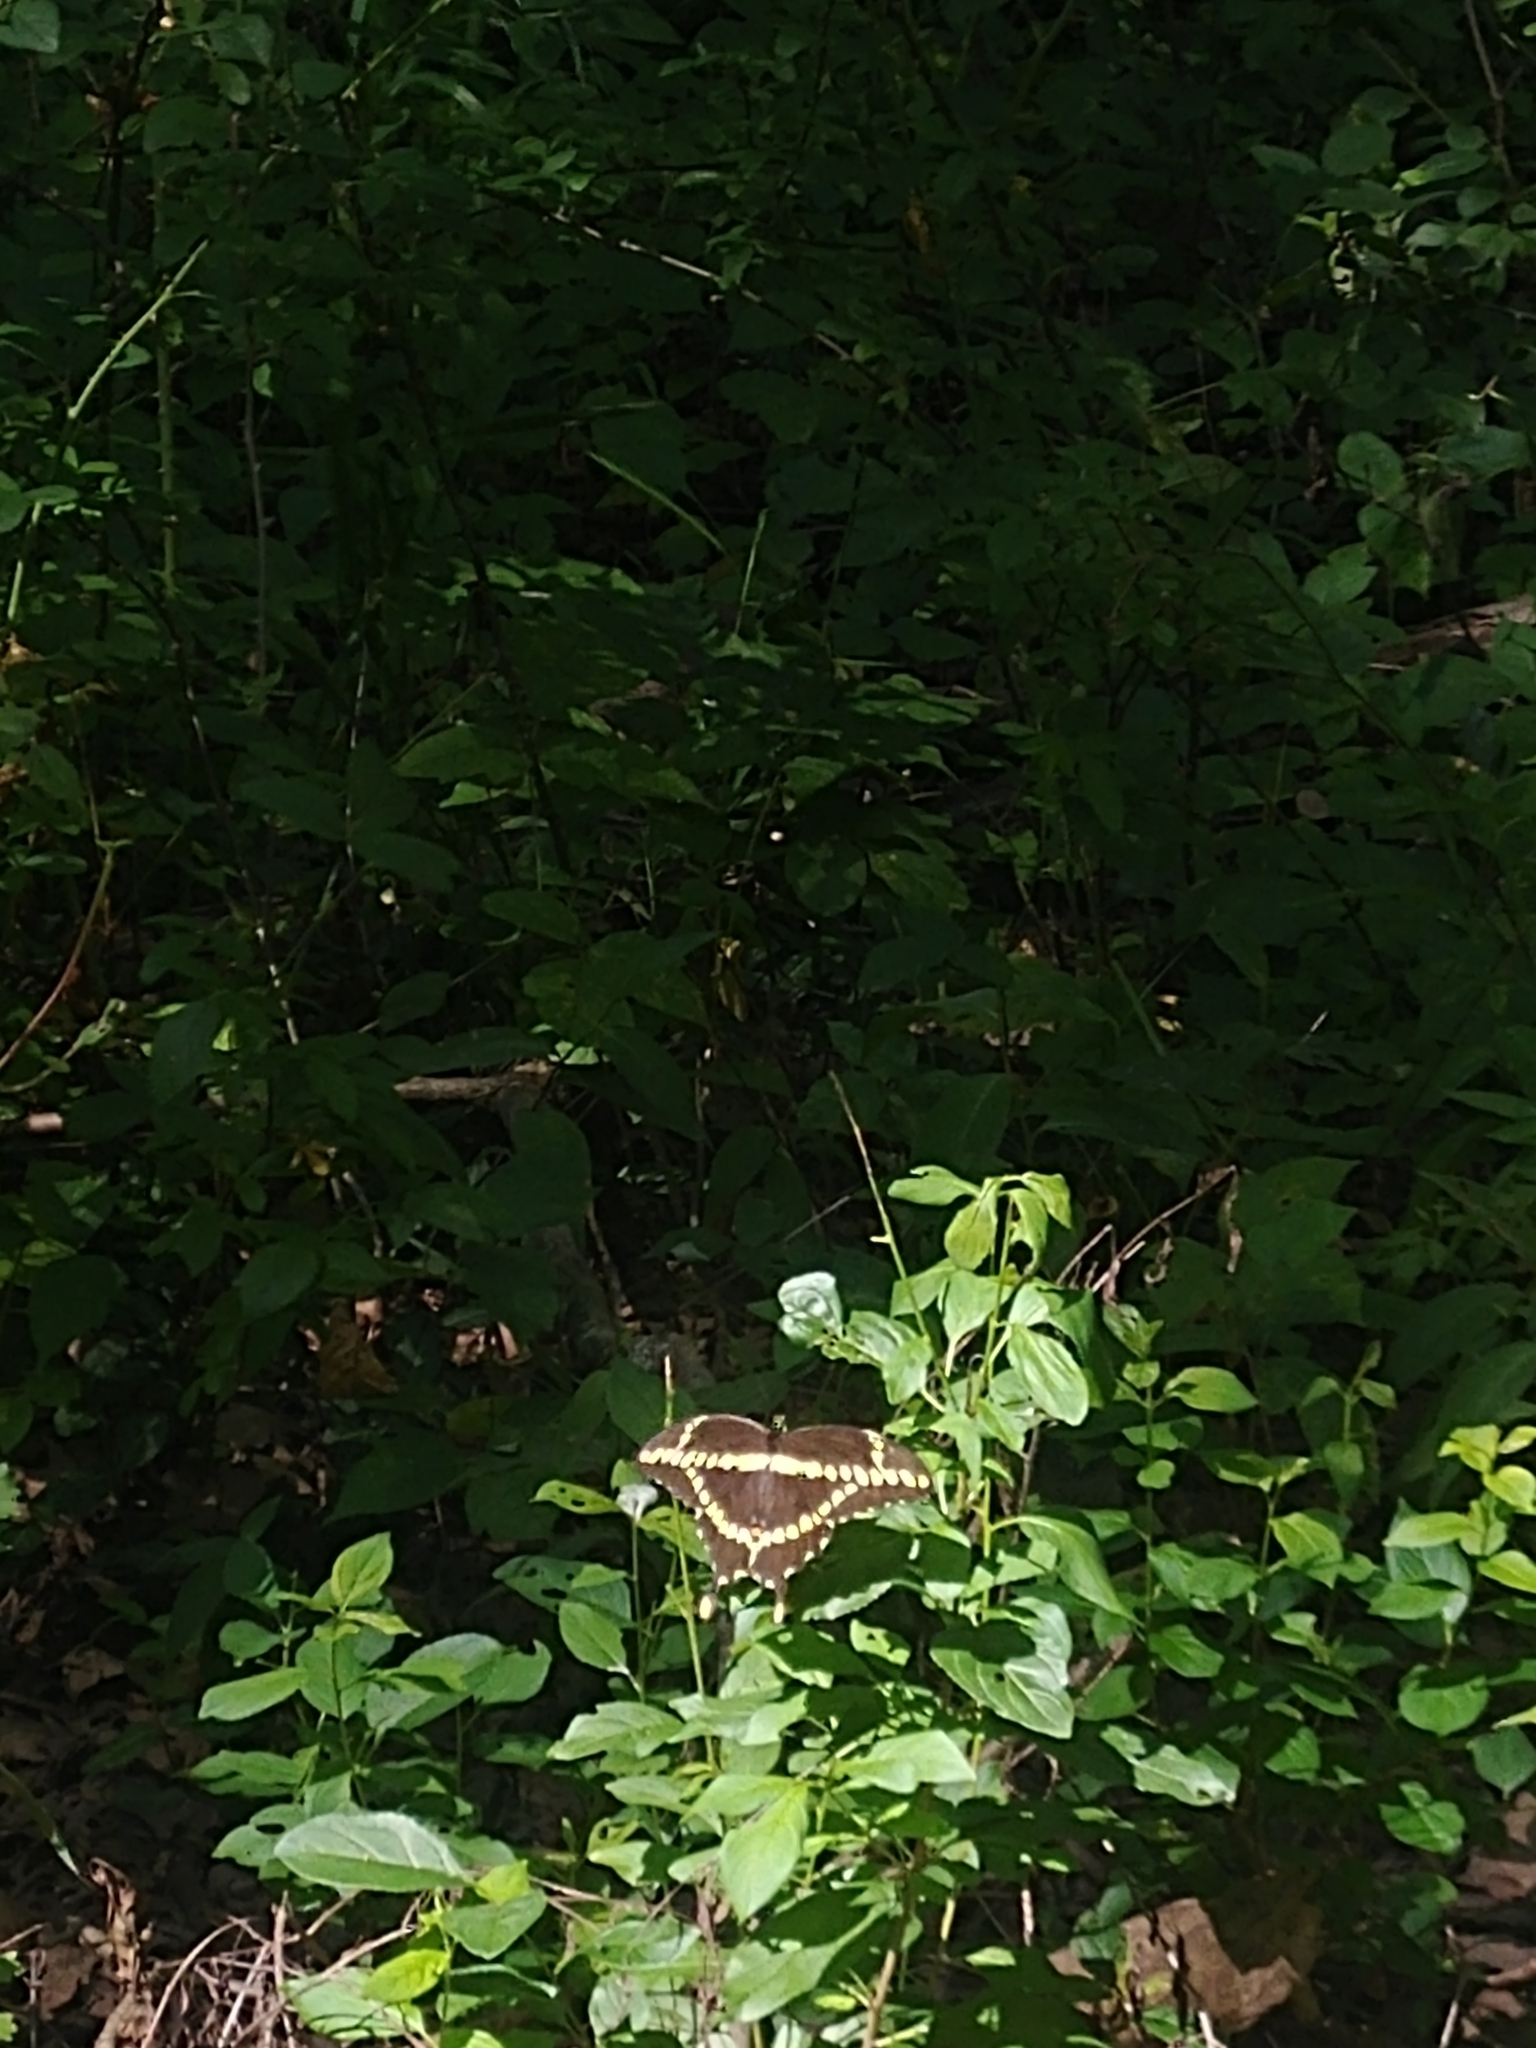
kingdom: Animalia
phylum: Arthropoda
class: Insecta
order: Lepidoptera
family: Papilionidae
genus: Papilio
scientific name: Papilio cresphontes
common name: Giant swallowtail
